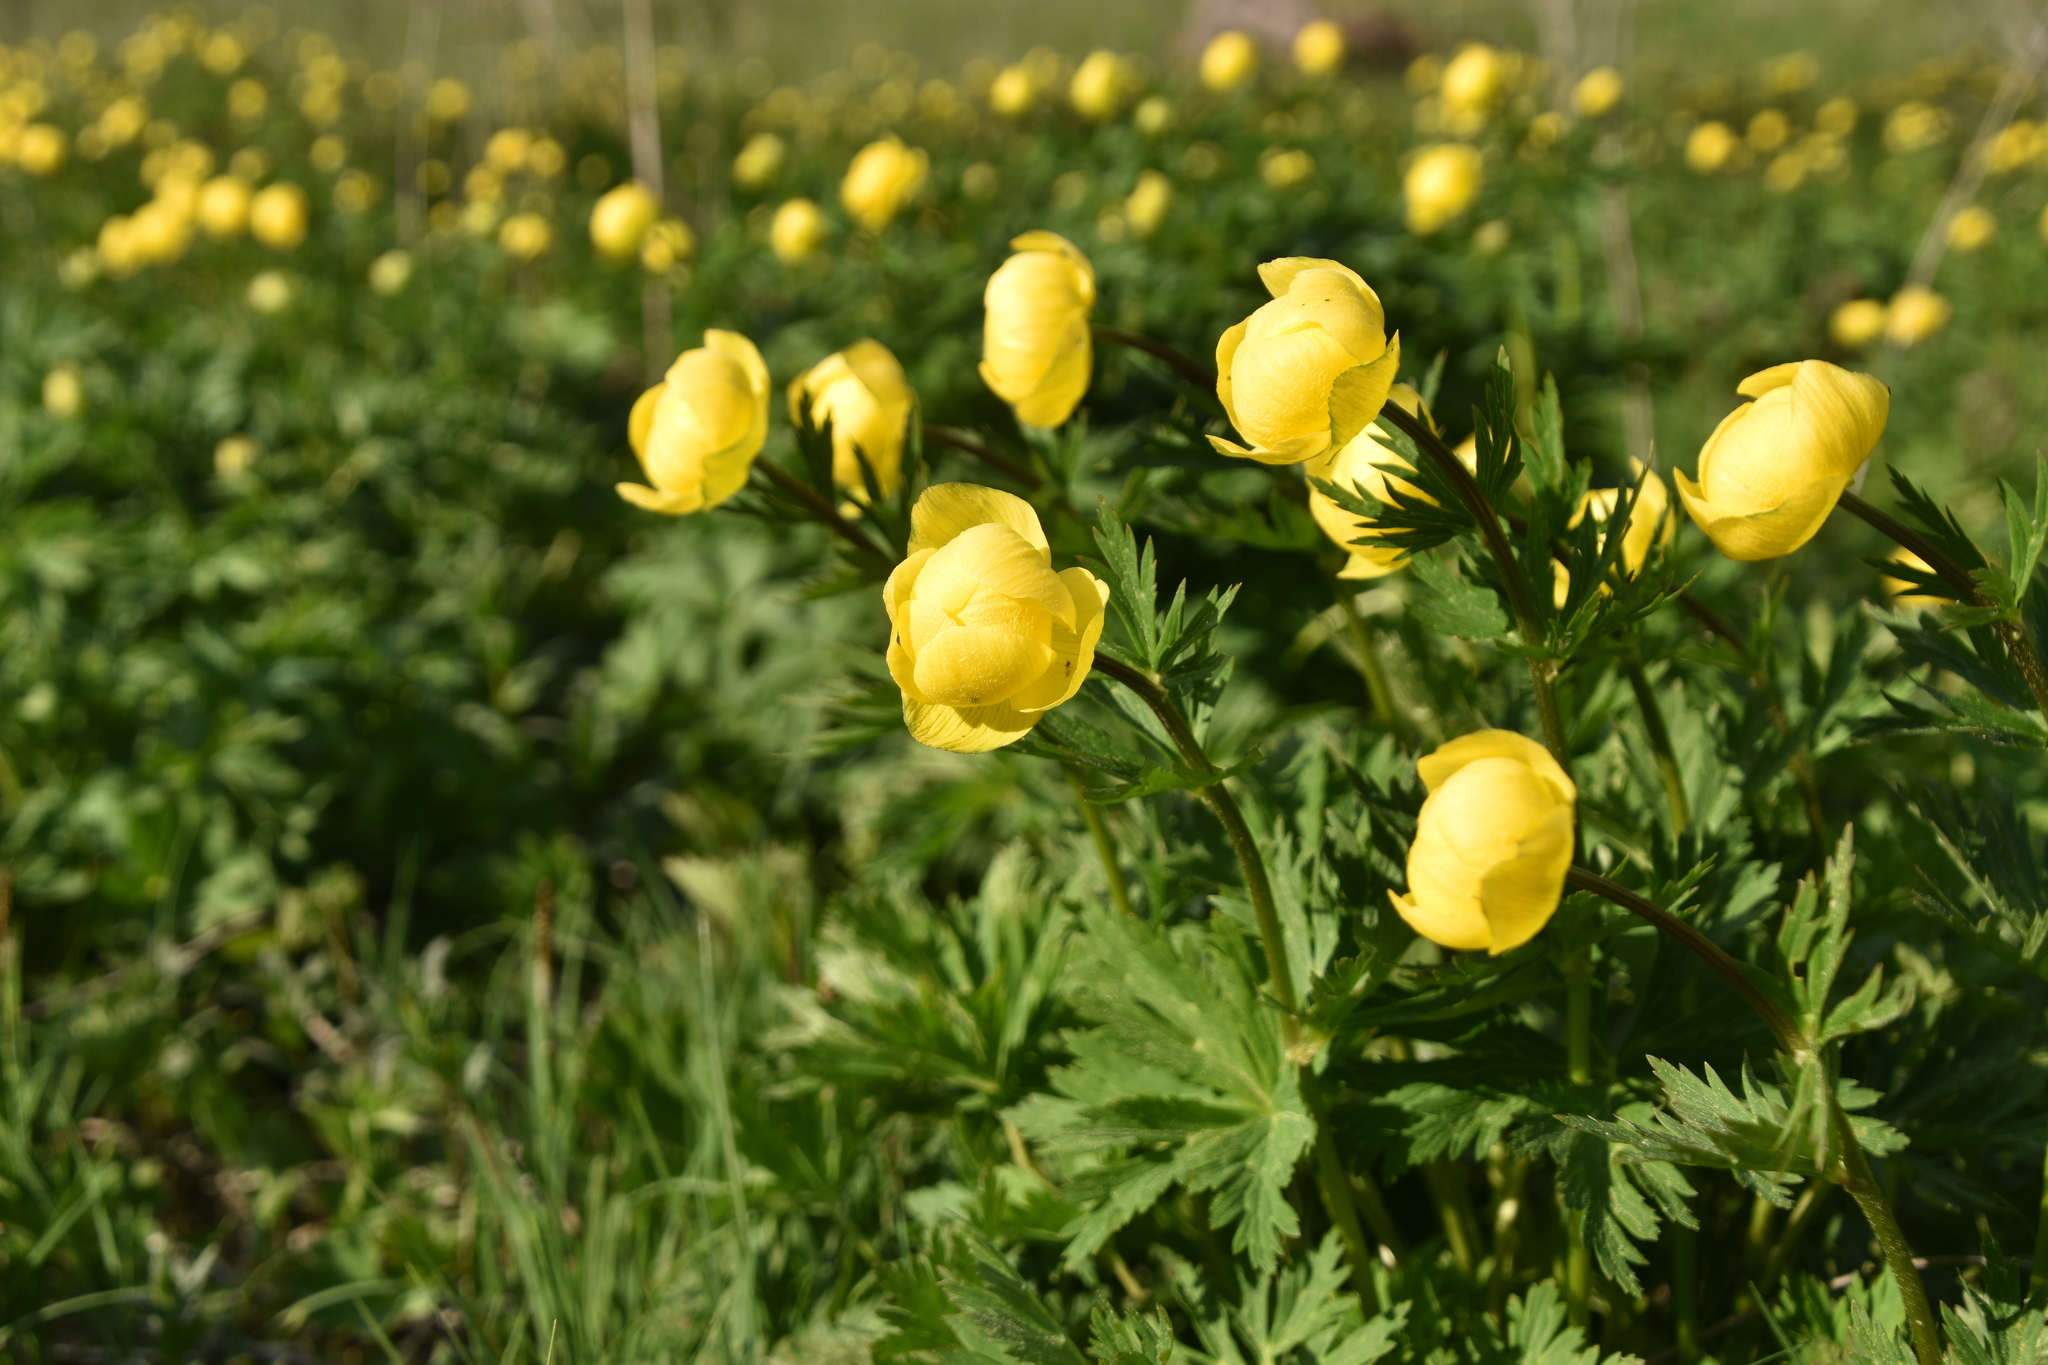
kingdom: Plantae
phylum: Tracheophyta
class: Magnoliopsida
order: Ranunculales
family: Ranunculaceae
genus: Trollius
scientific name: Trollius europaeus
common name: European globeflower
